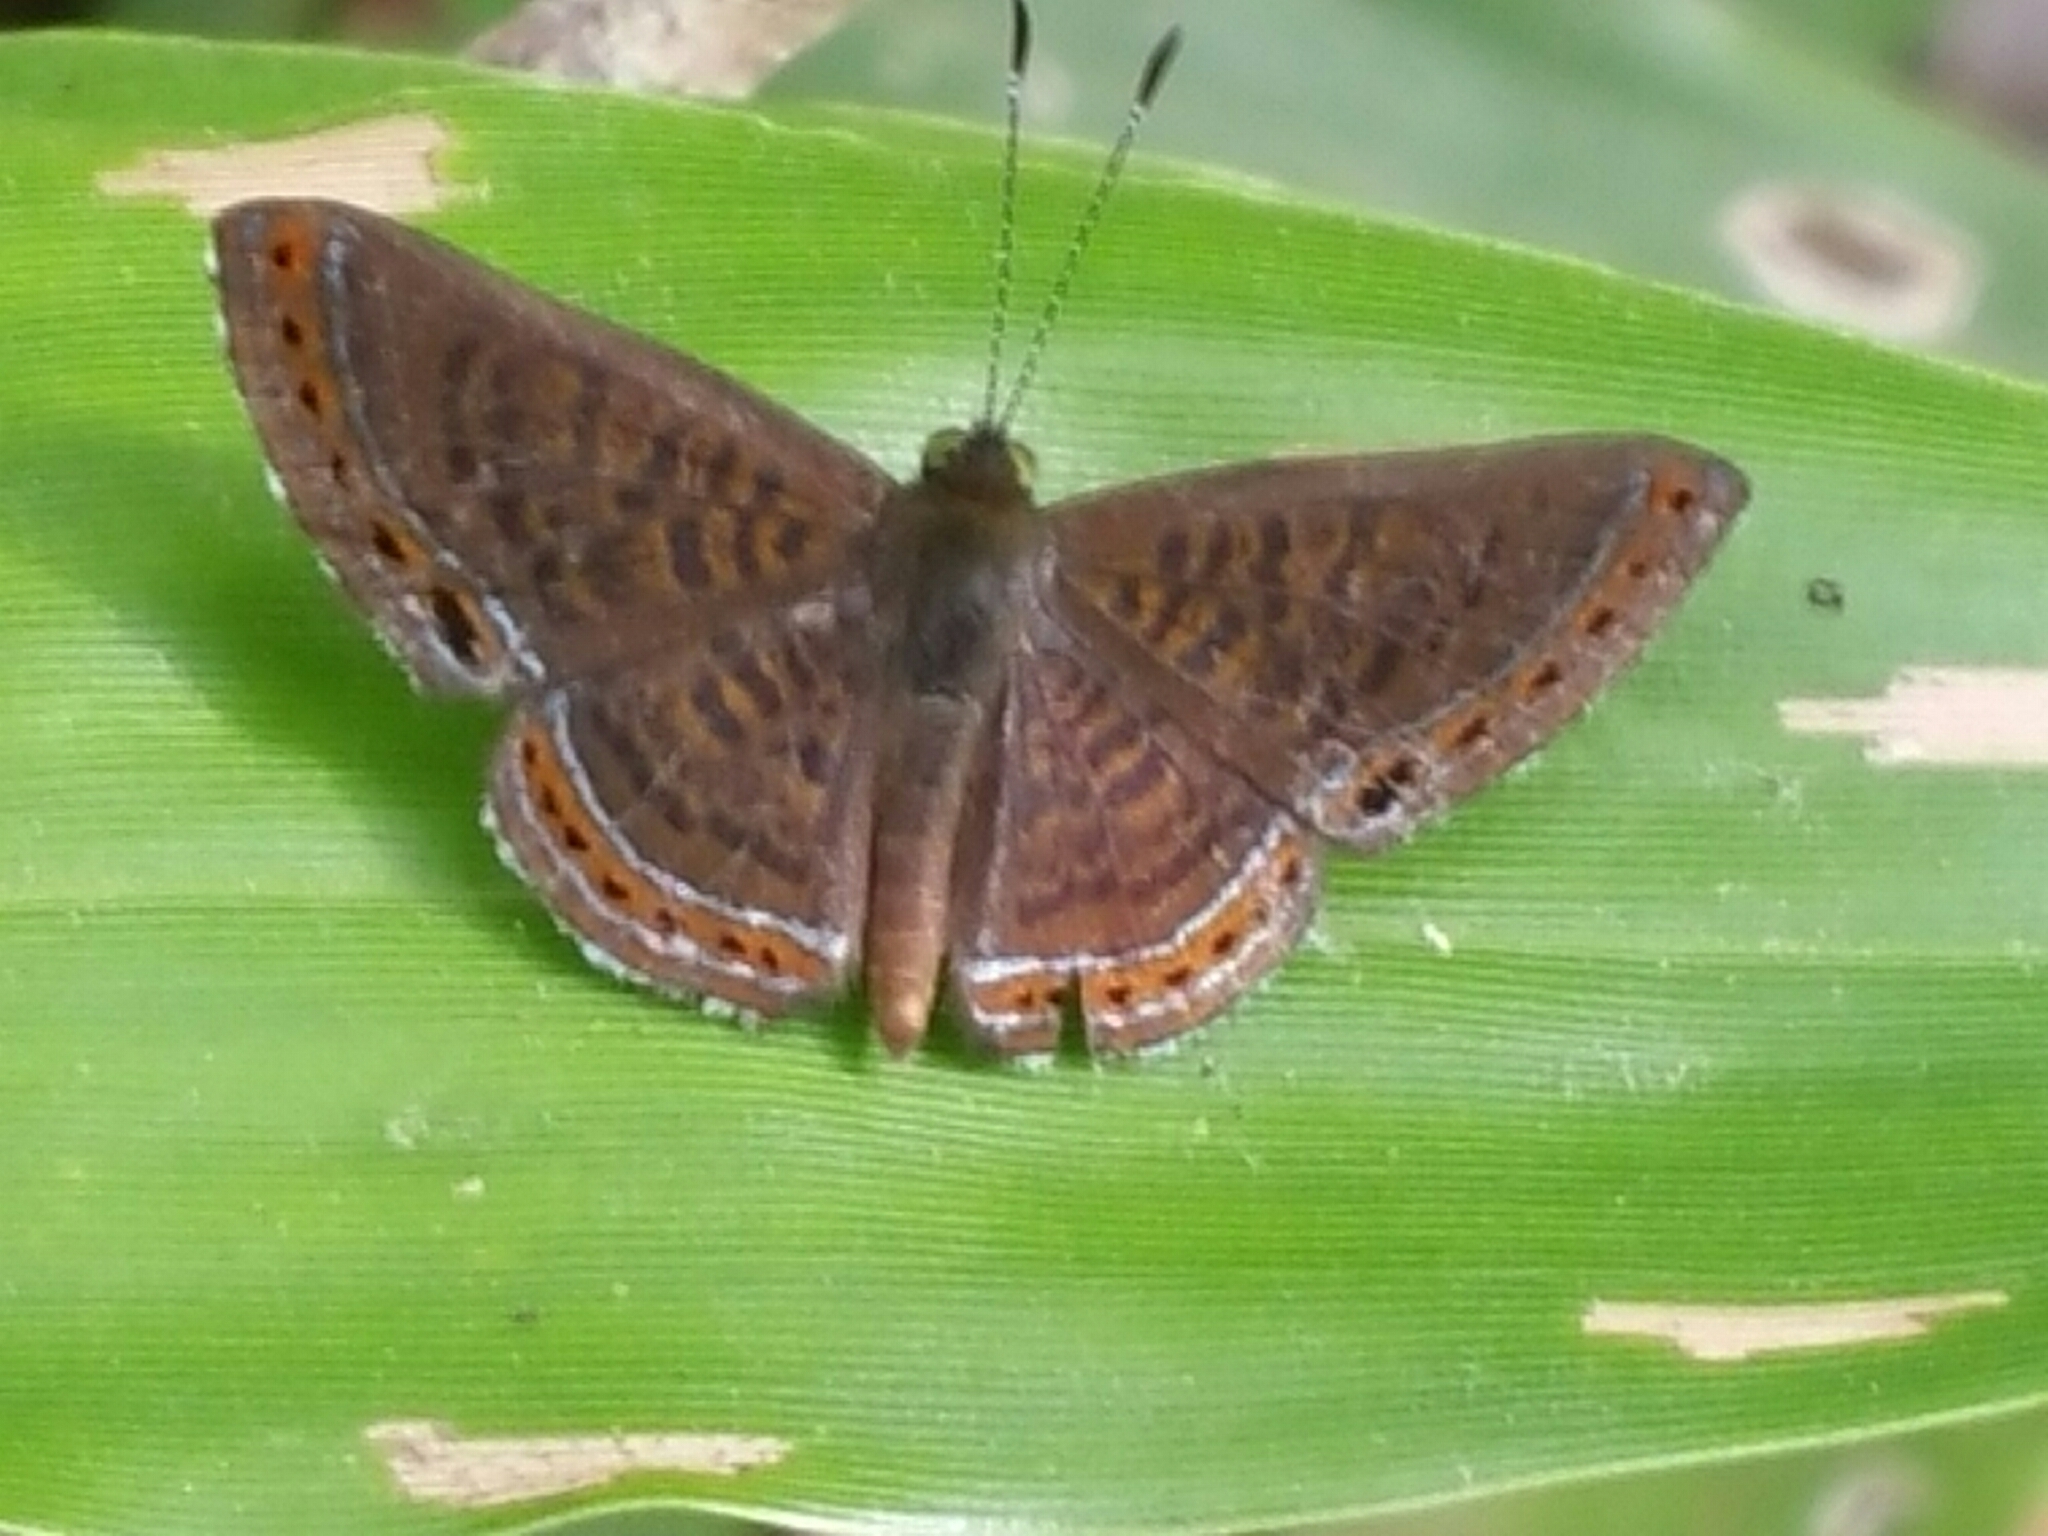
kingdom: Animalia
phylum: Arthropoda
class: Insecta
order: Lepidoptera
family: Riodinidae
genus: Detritivora
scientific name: Detritivora
